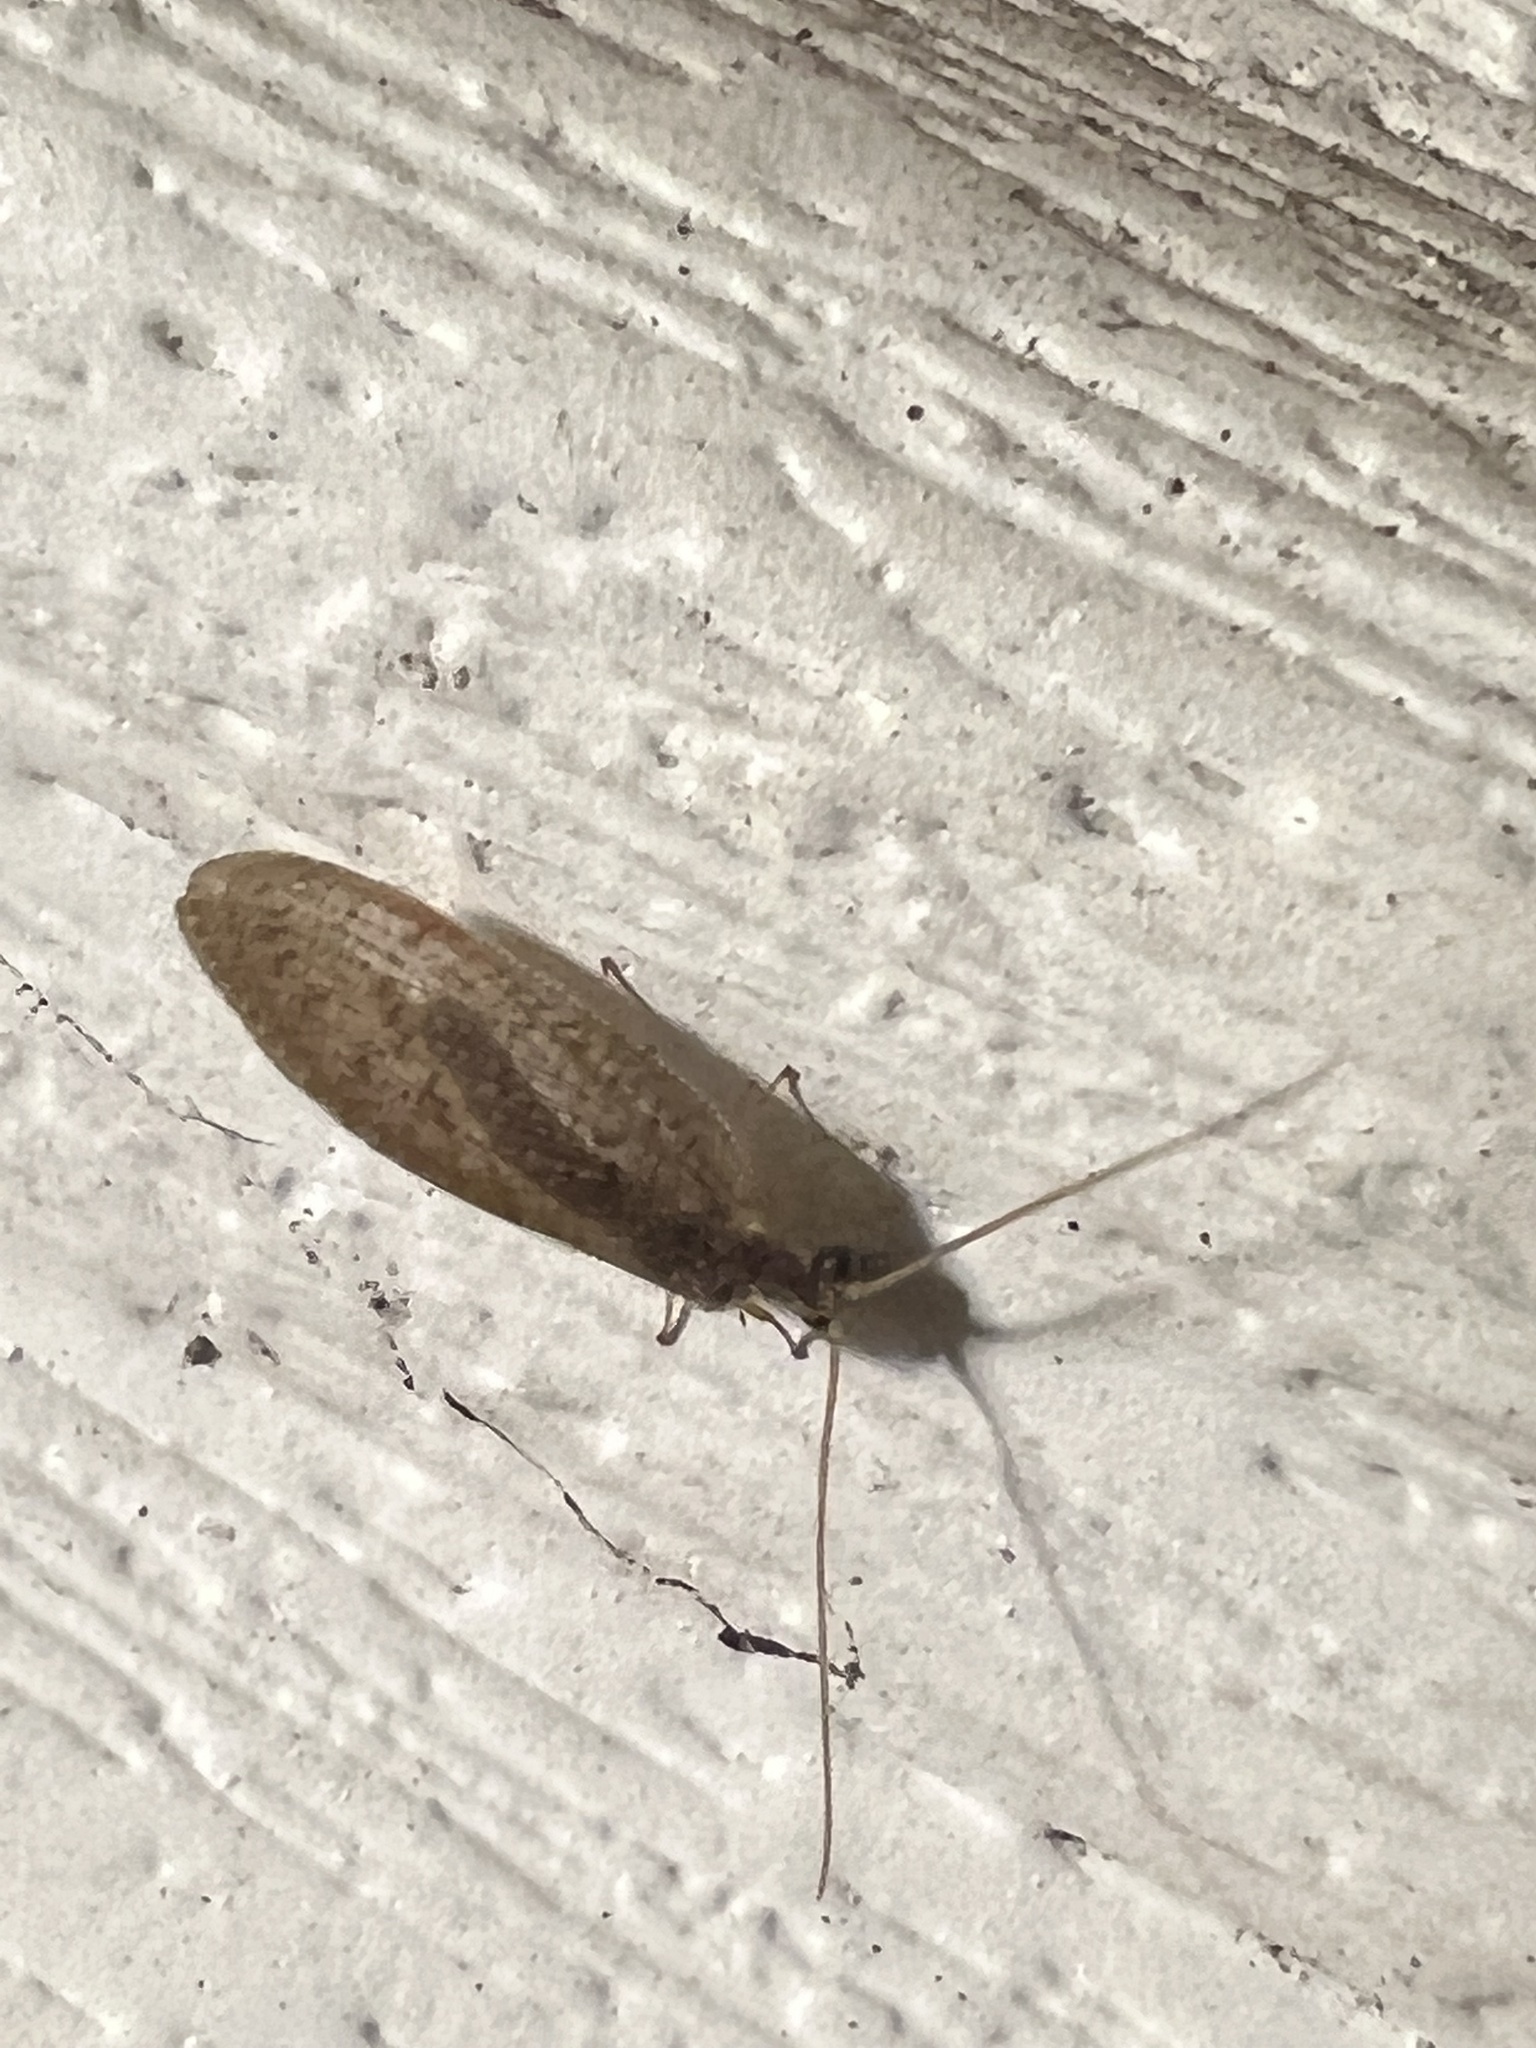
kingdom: Animalia
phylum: Arthropoda
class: Insecta
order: Neuroptera
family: Hemerobiidae
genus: Hemerobius
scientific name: Hemerobius stigma
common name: Brown pine lacewing
